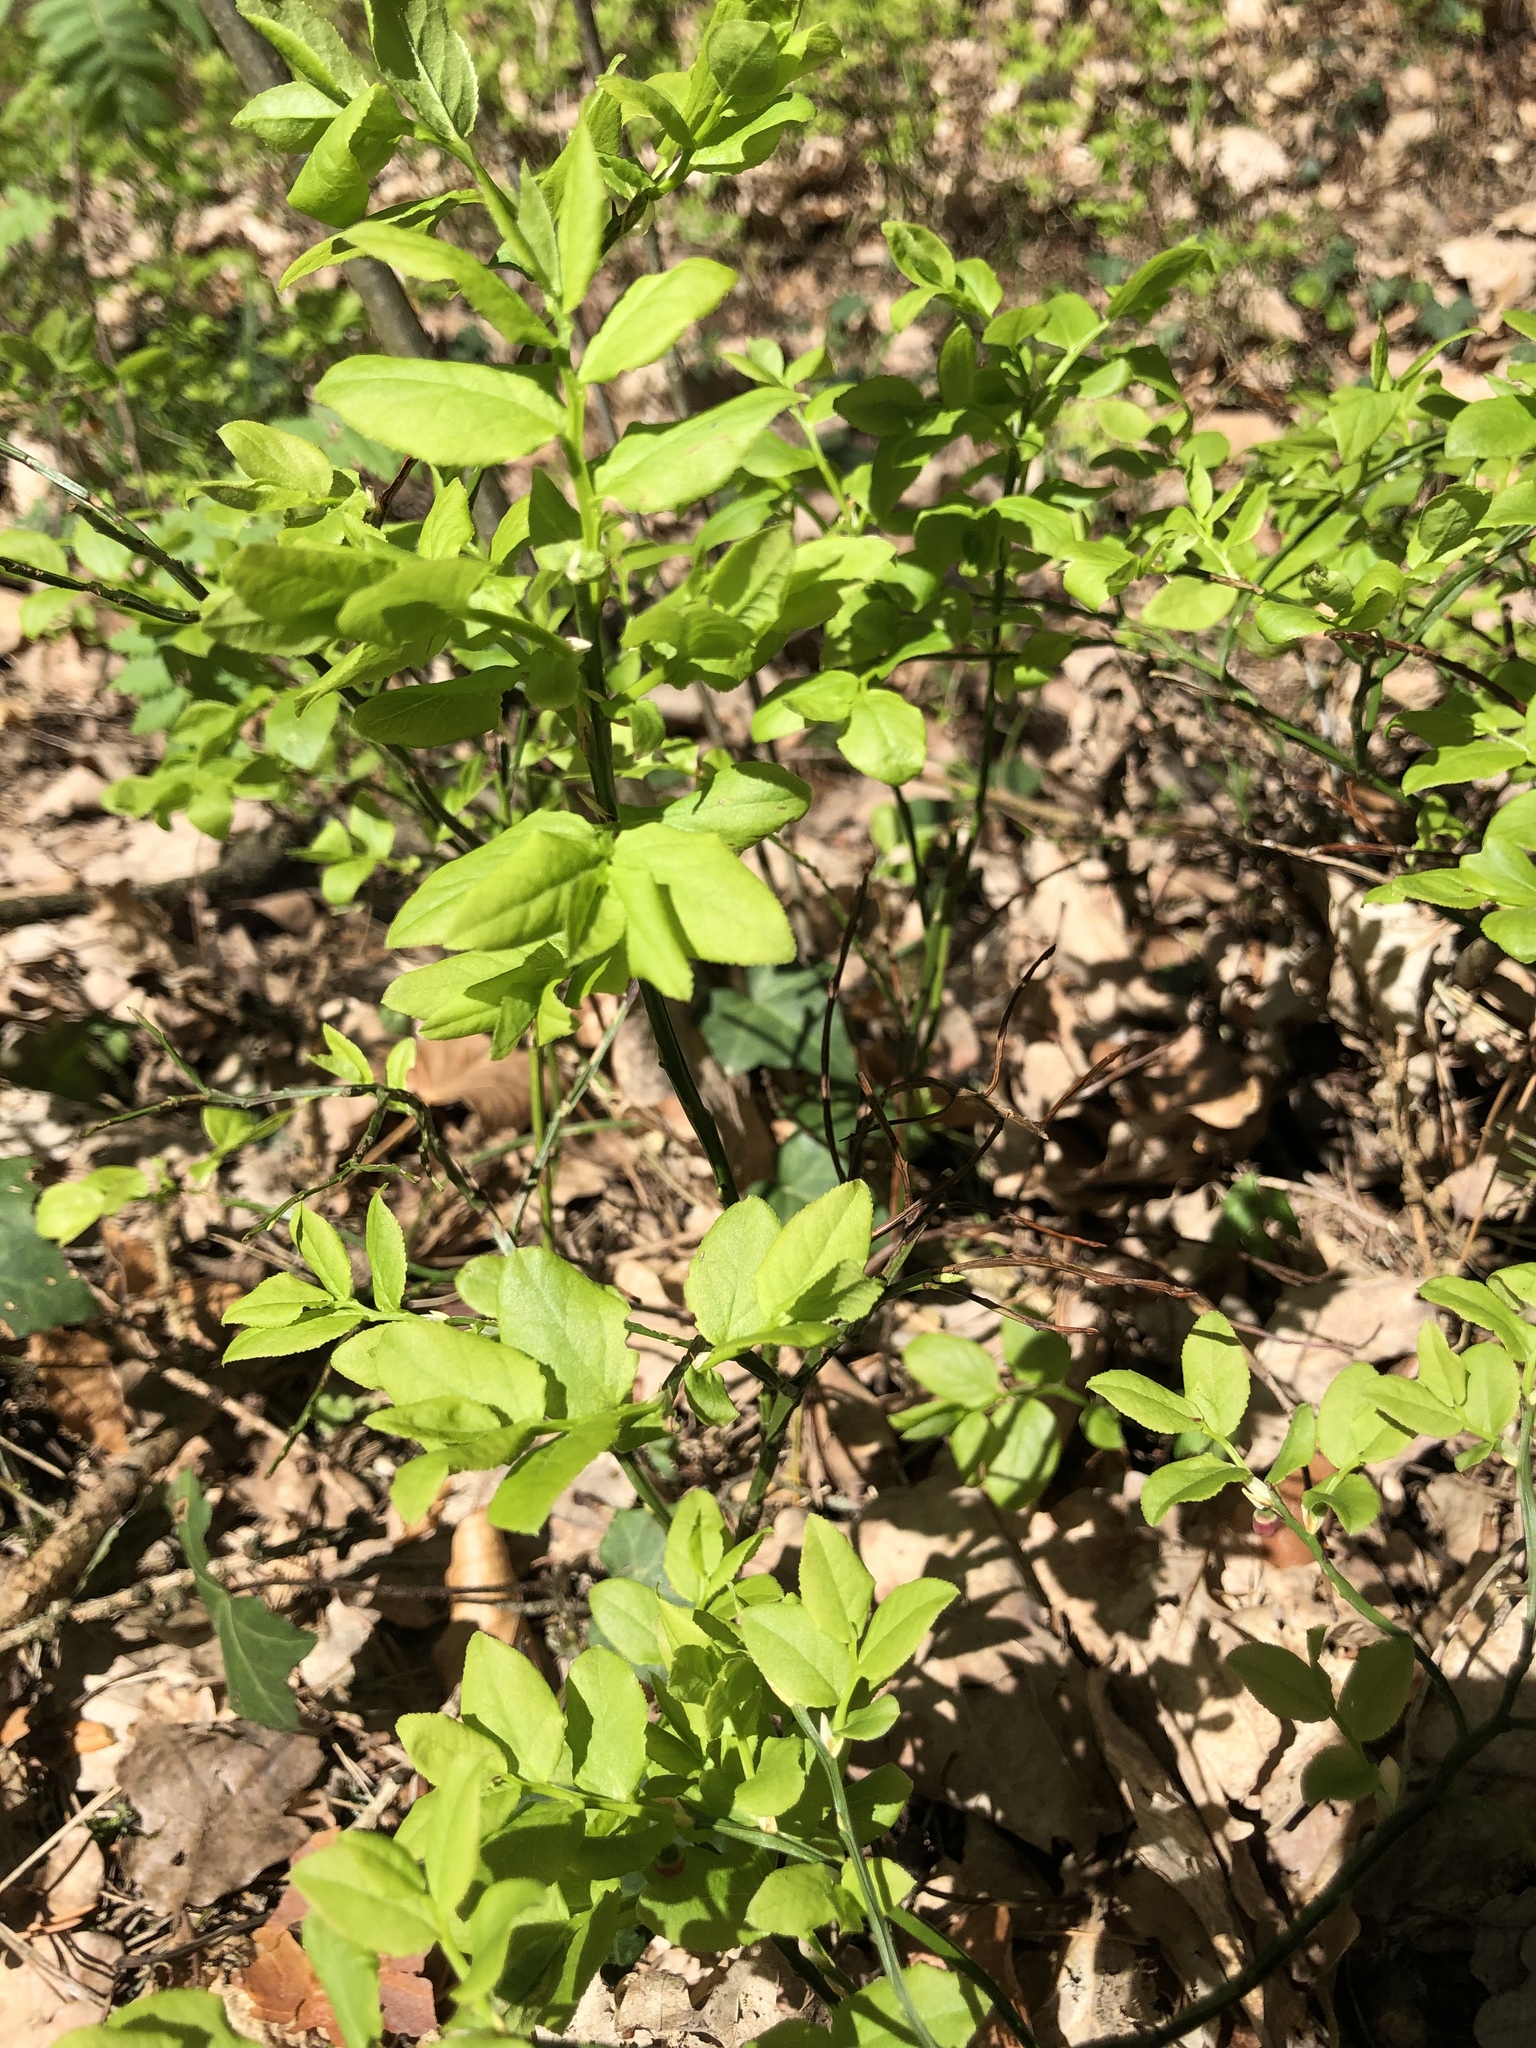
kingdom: Plantae
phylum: Tracheophyta
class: Magnoliopsida
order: Ericales
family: Ericaceae
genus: Vaccinium
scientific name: Vaccinium myrtillus
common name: Bilberry
